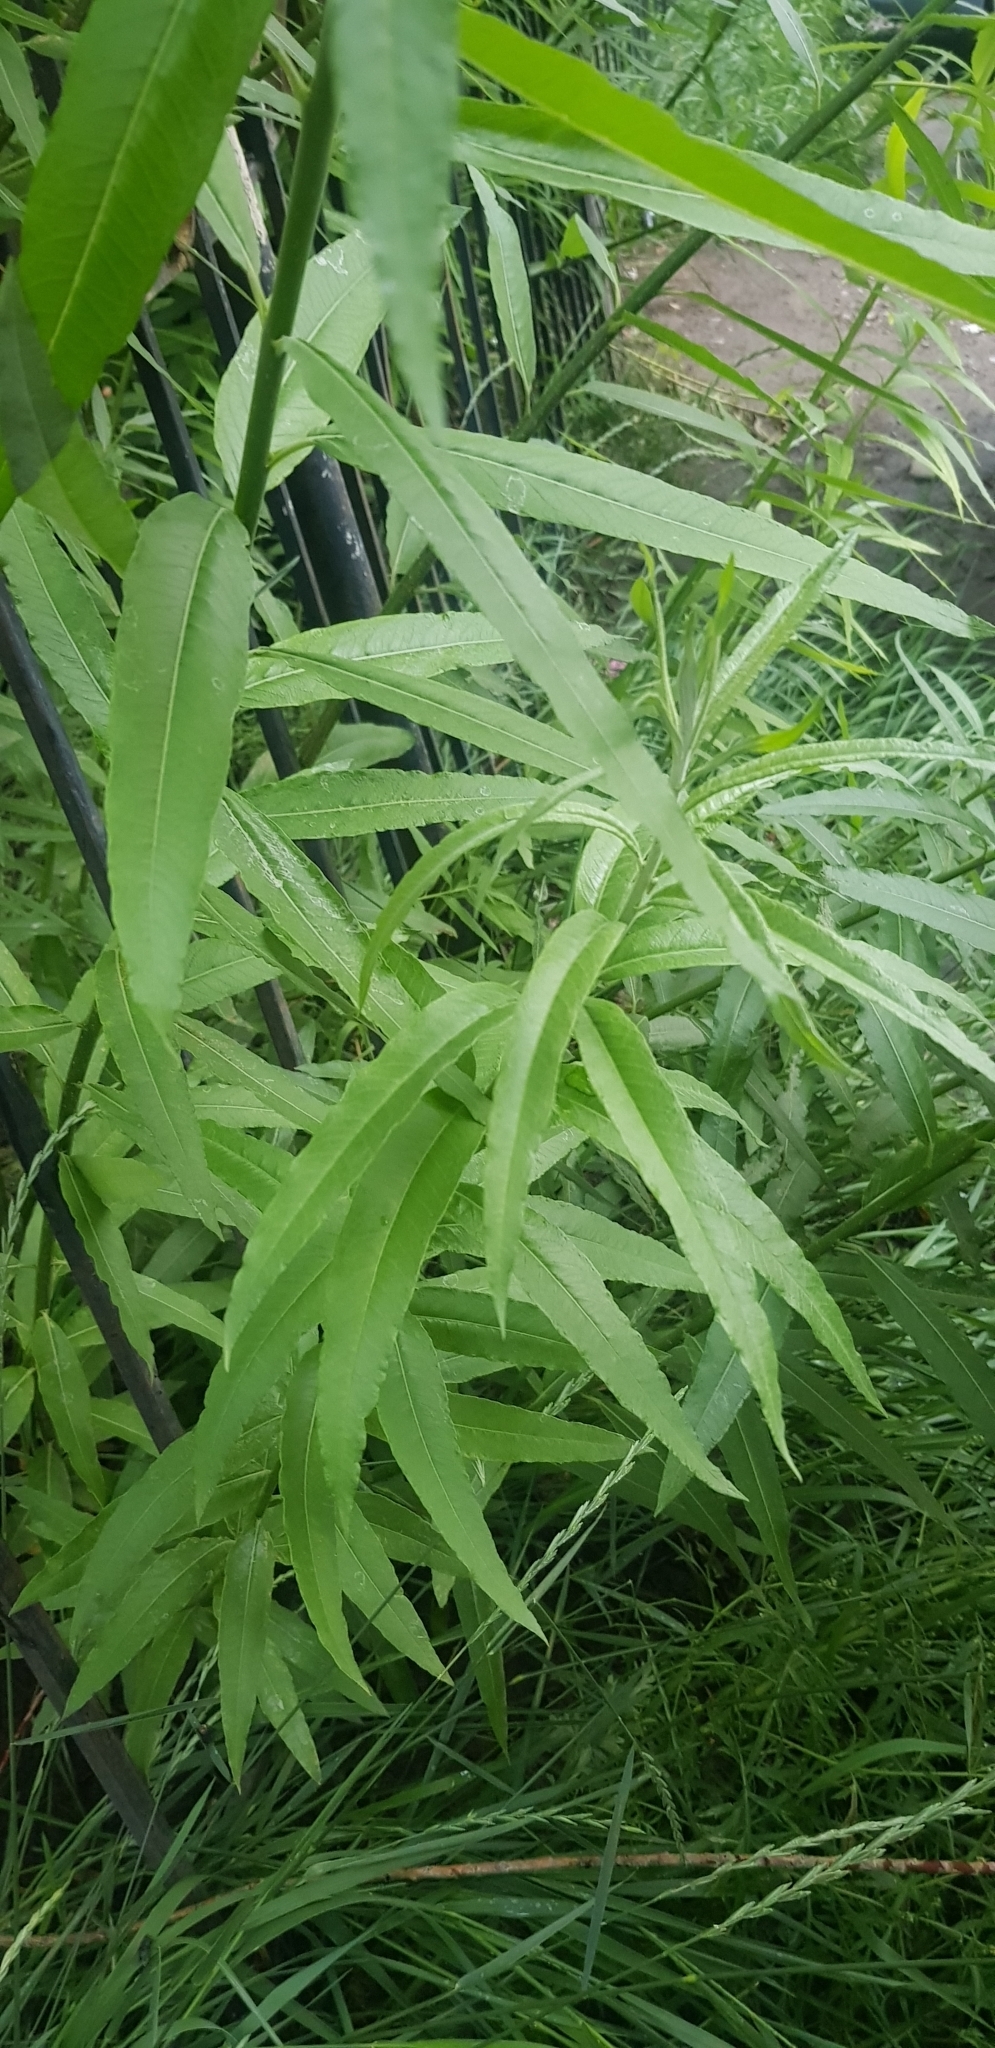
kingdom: Plantae
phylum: Tracheophyta
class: Magnoliopsida
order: Malpighiales
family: Salicaceae
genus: Salix
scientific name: Salix viminalis
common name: Osier
